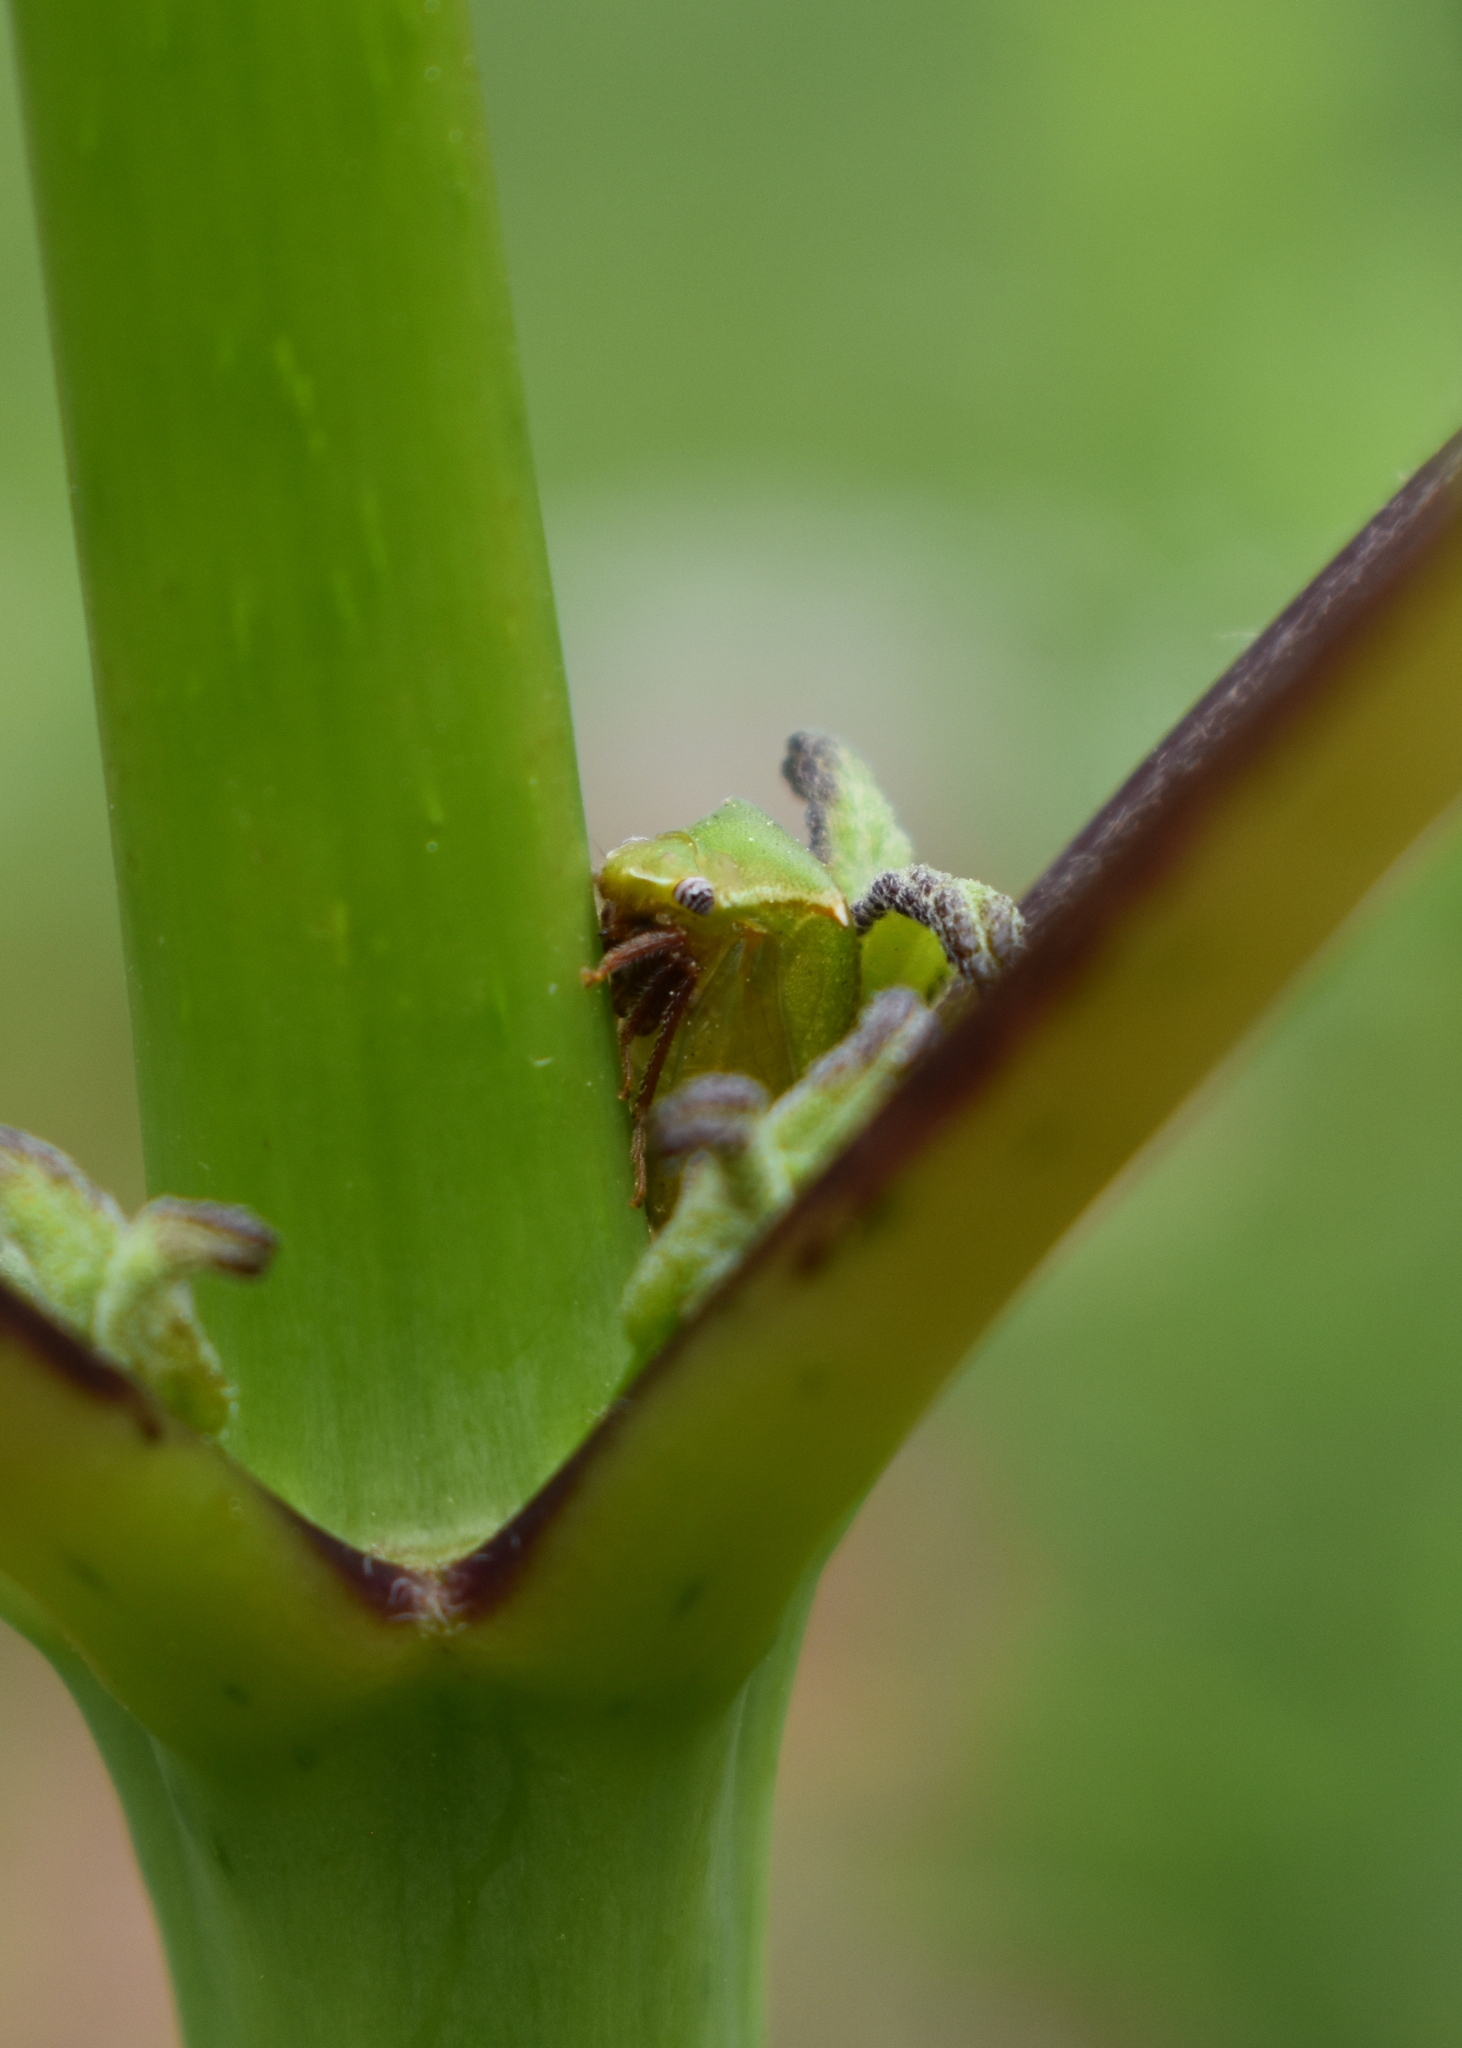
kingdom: Animalia
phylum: Arthropoda
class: Insecta
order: Hemiptera
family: Membracidae
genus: Stictocephala
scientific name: Stictocephala brevitylus
